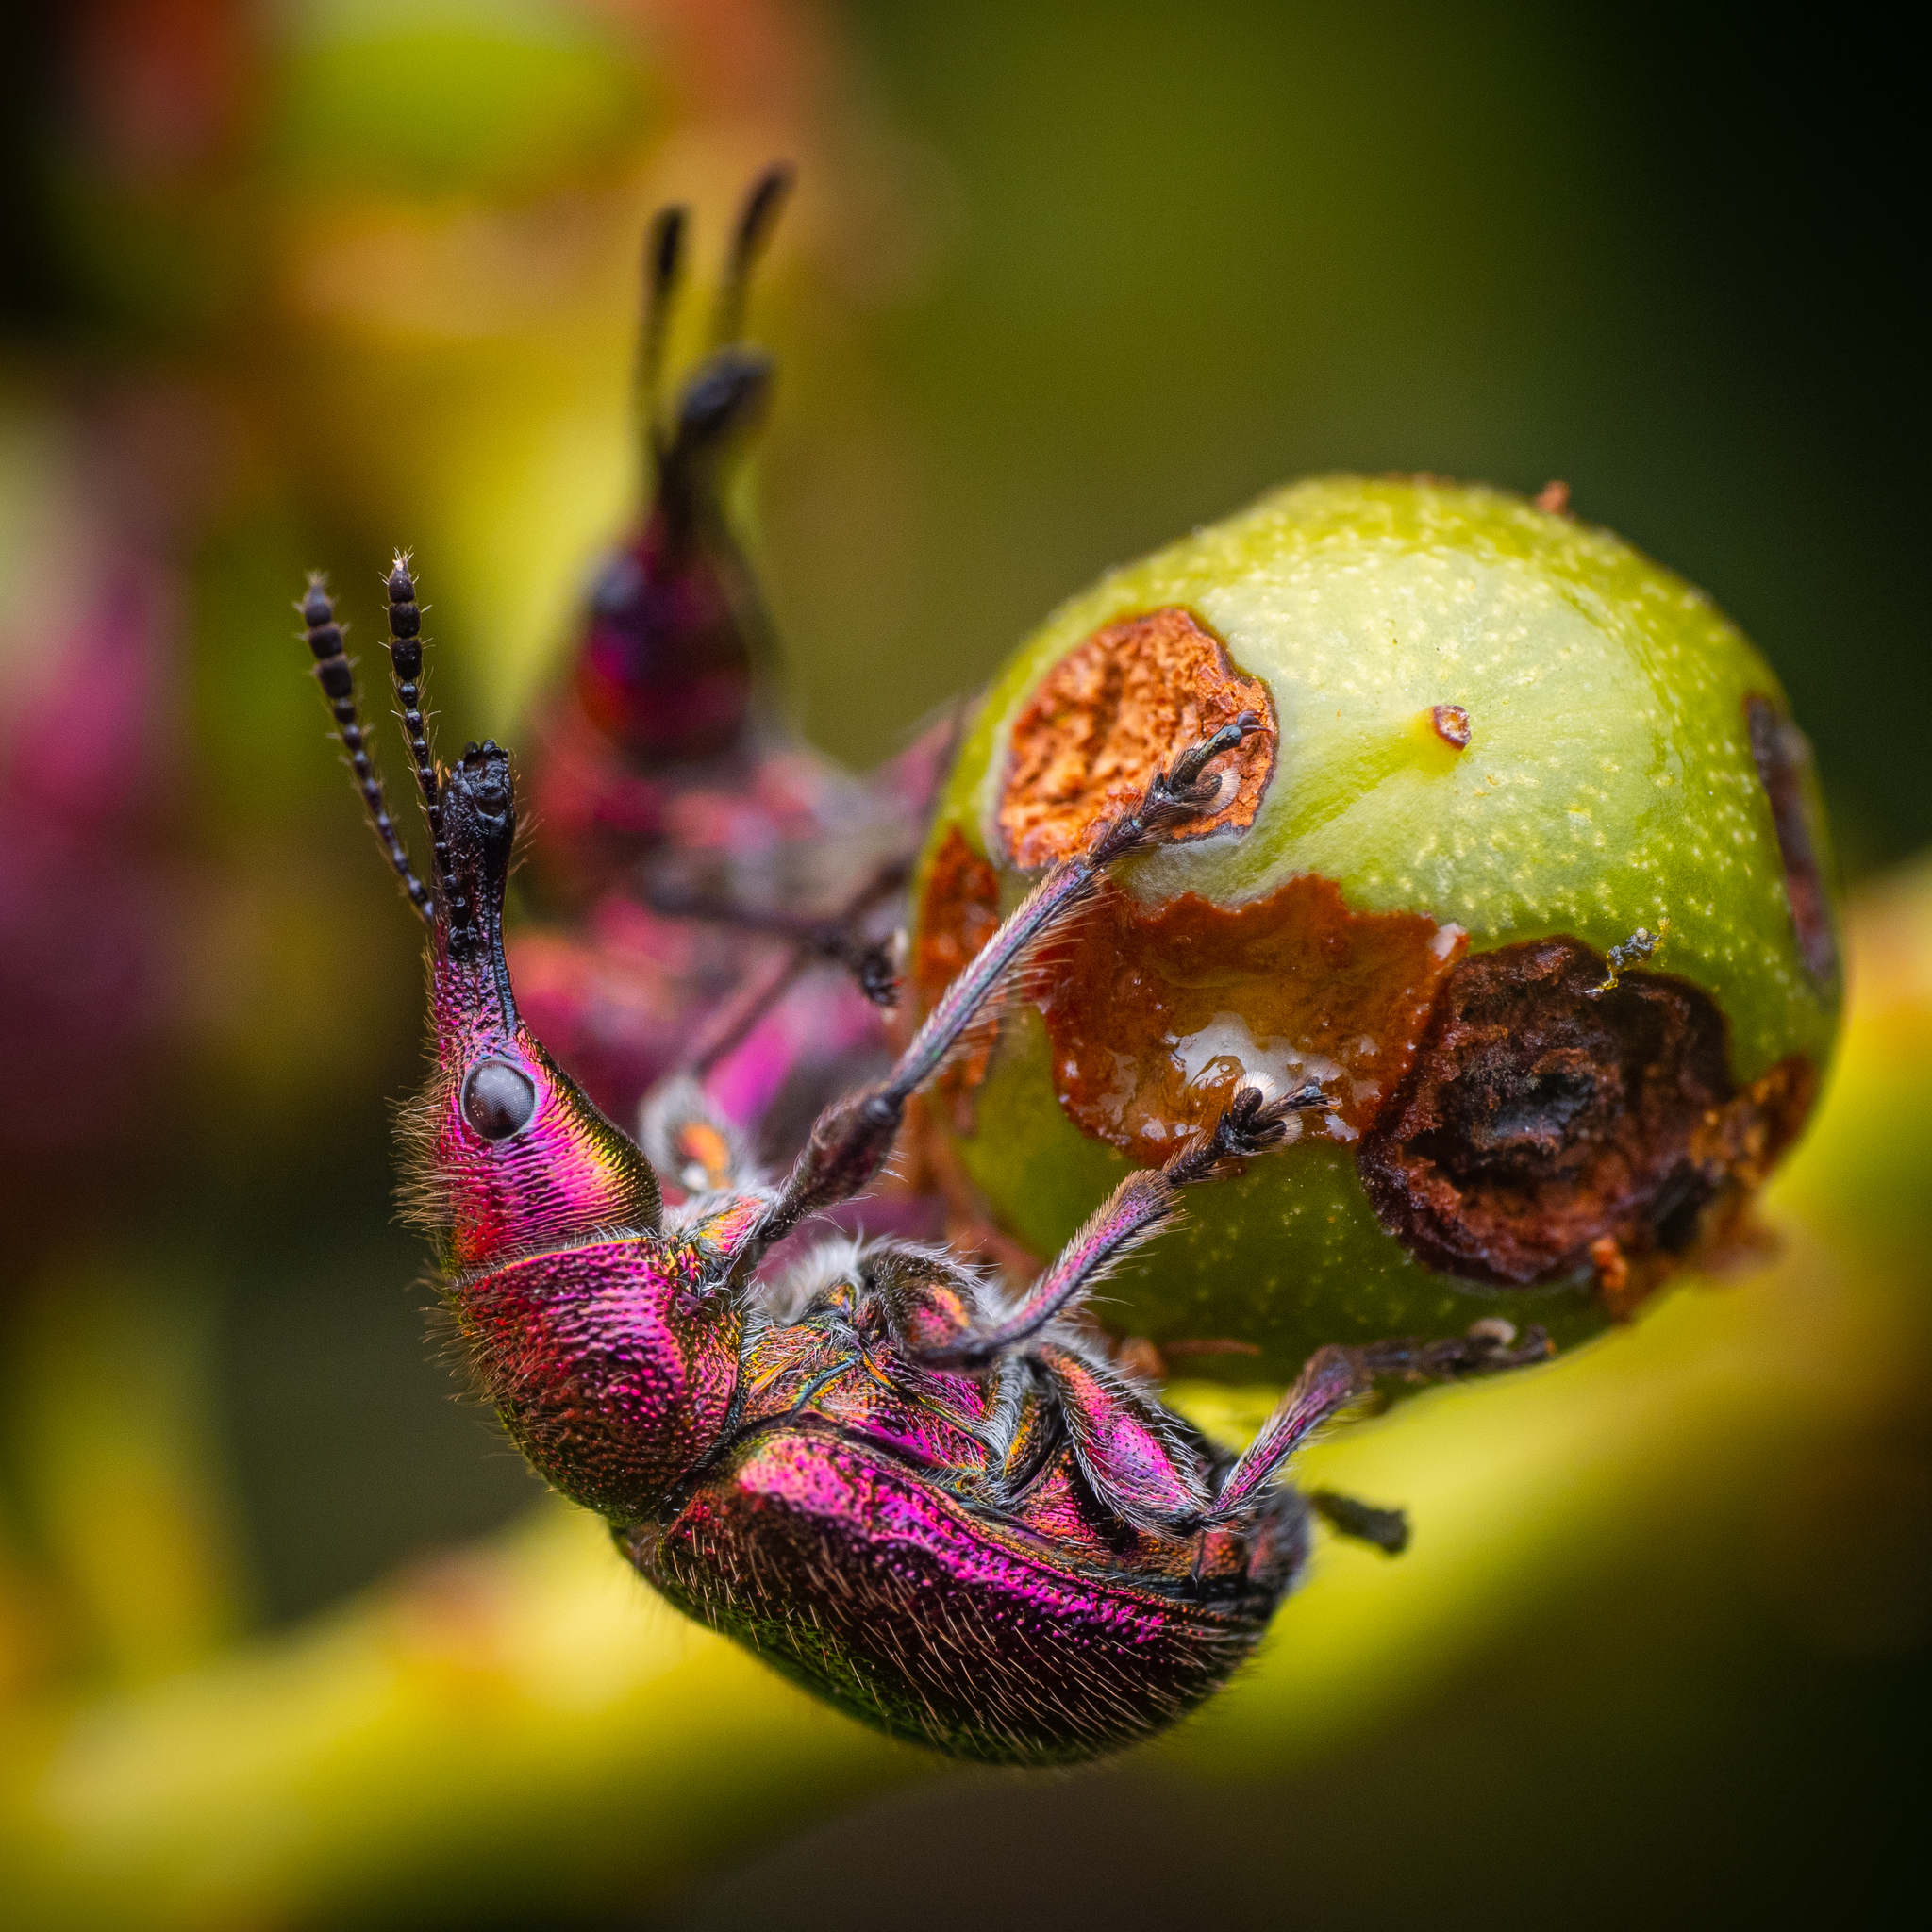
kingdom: Animalia
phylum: Arthropoda
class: Insecta
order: Coleoptera
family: Attelabidae
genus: Rhynchites
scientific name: Rhynchites auratus
